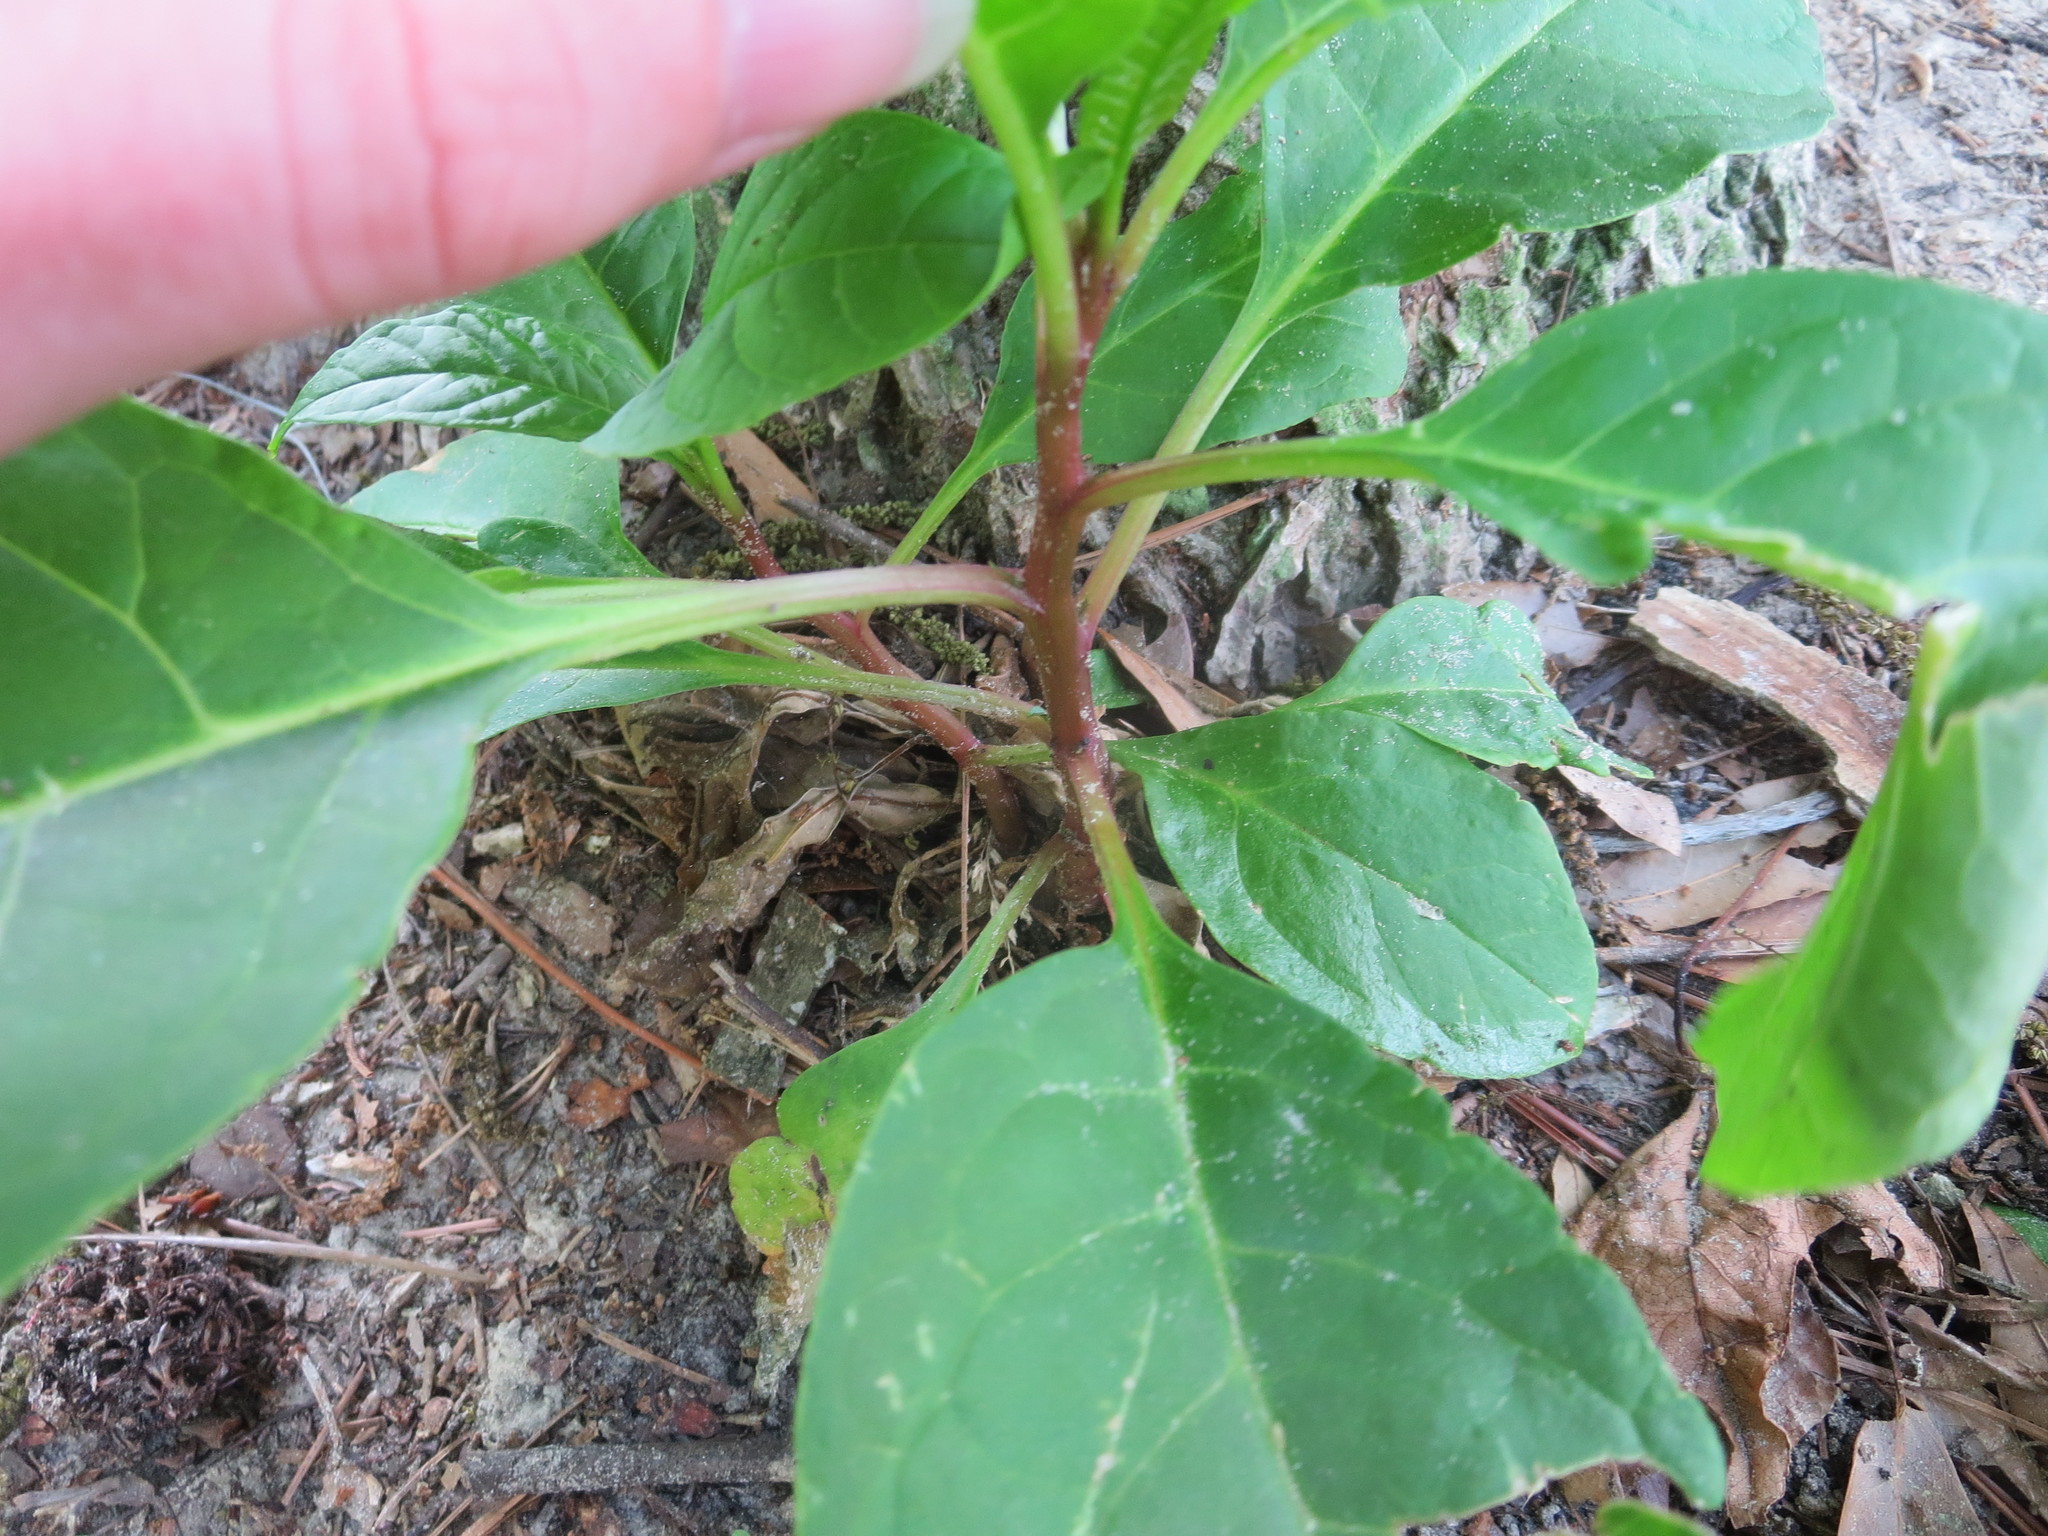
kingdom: Plantae
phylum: Tracheophyta
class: Magnoliopsida
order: Caryophyllales
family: Phytolaccaceae
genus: Phytolacca
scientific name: Phytolacca americana
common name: American pokeweed
